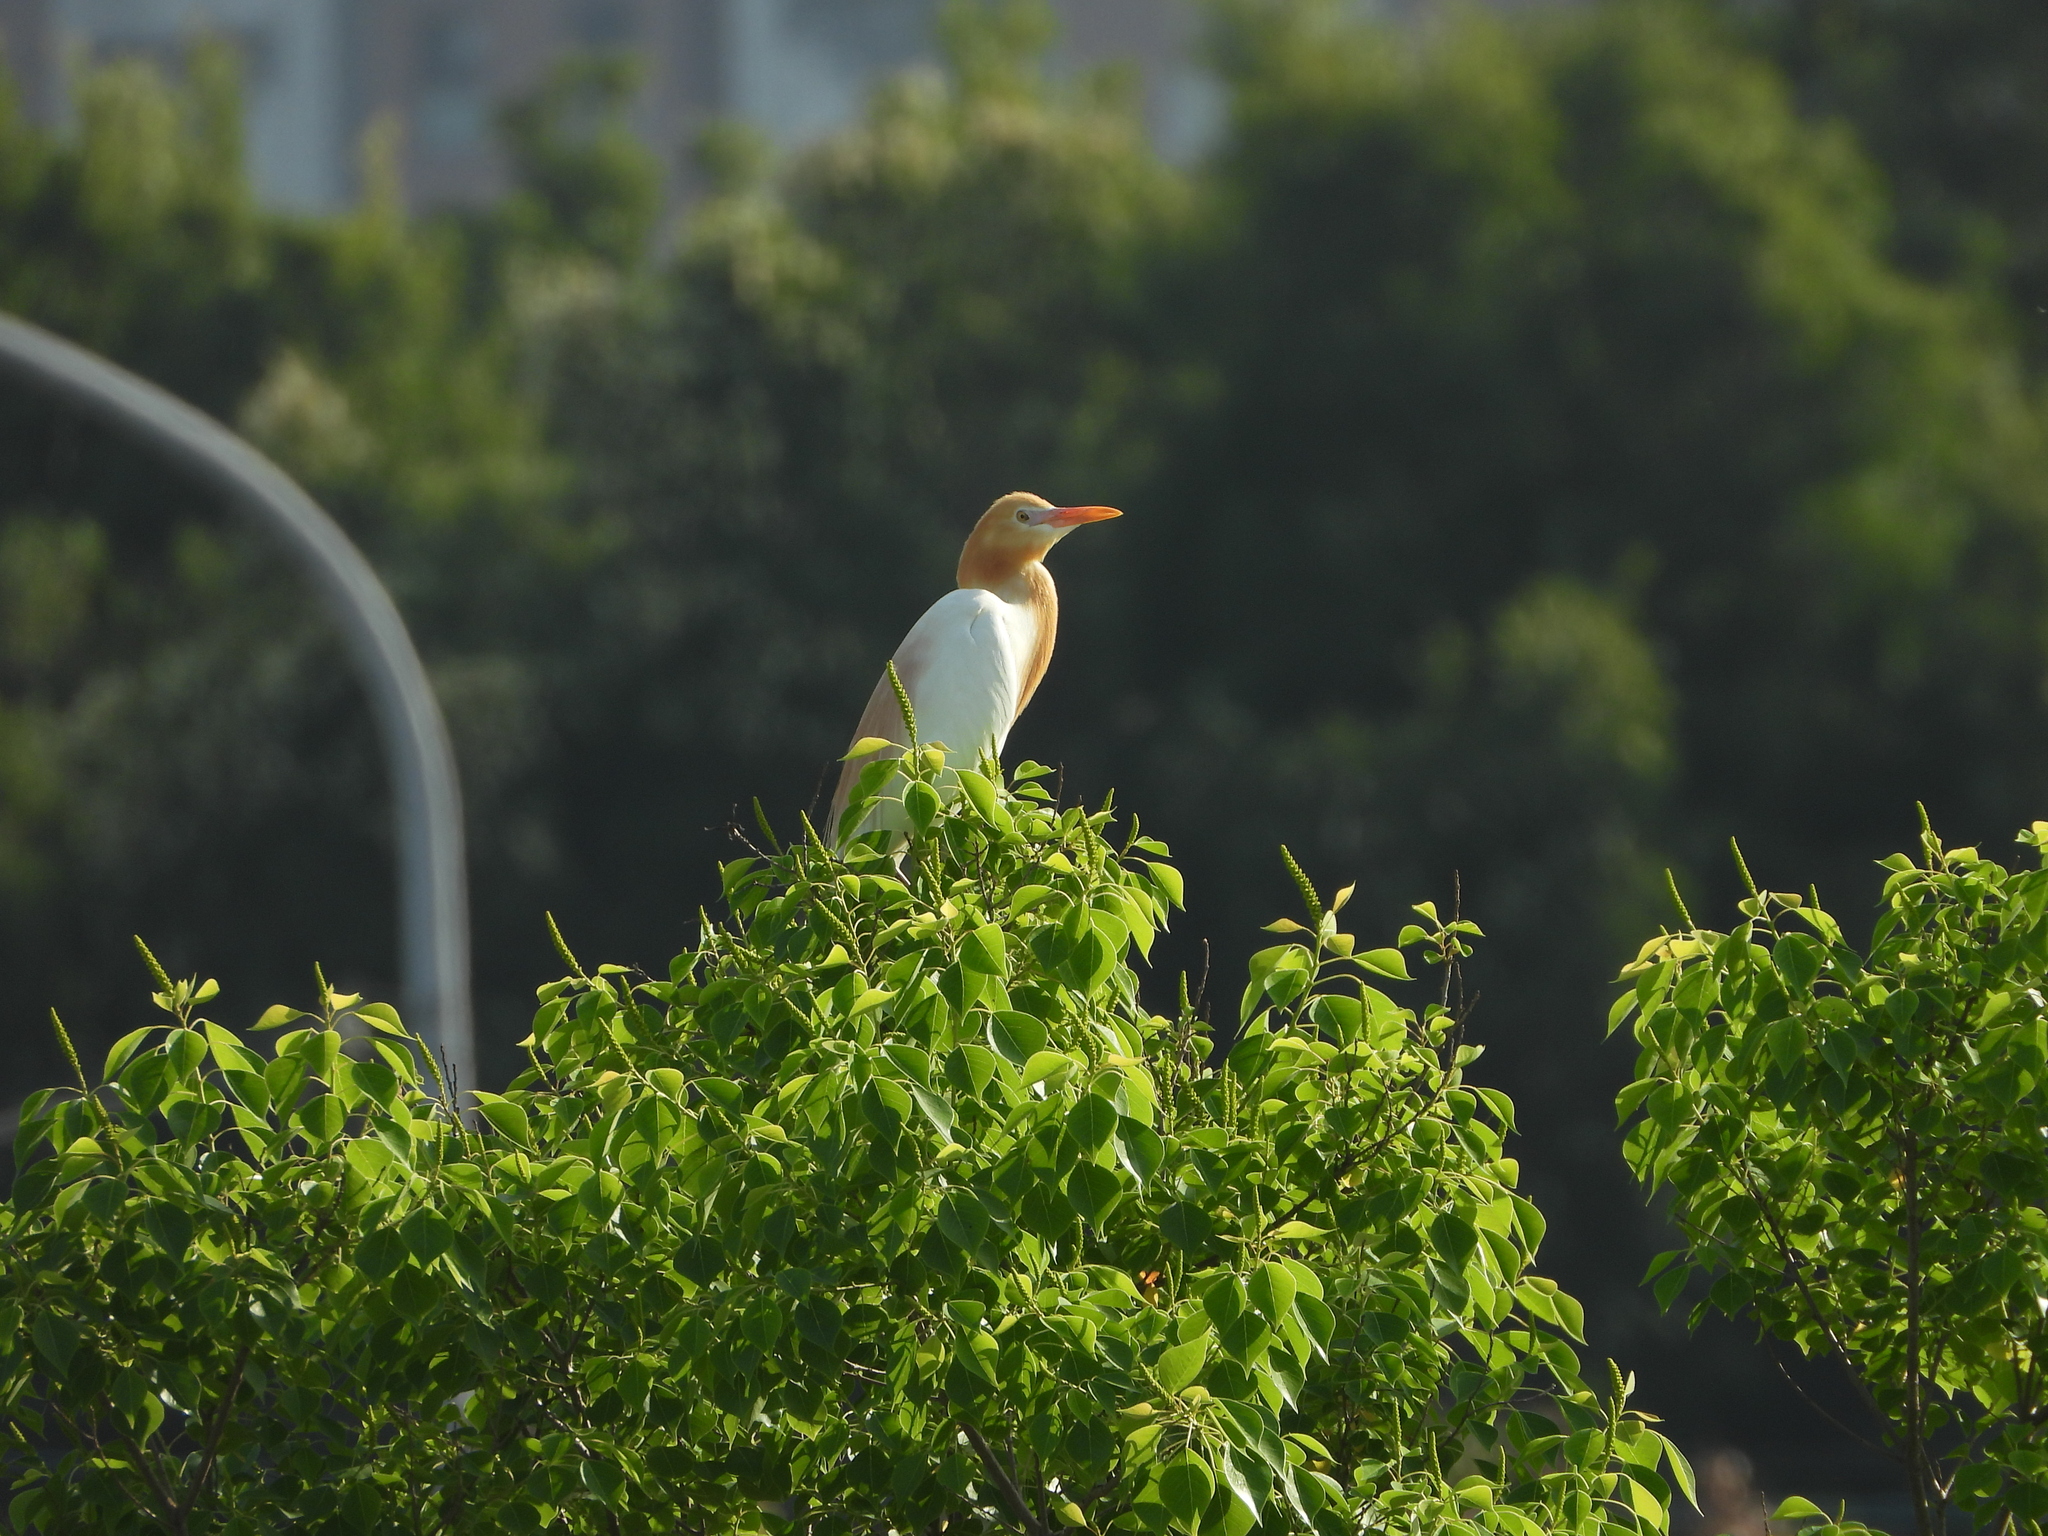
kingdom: Animalia
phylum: Chordata
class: Aves
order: Pelecaniformes
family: Ardeidae
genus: Bubulcus
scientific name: Bubulcus coromandus
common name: Eastern cattle egret
